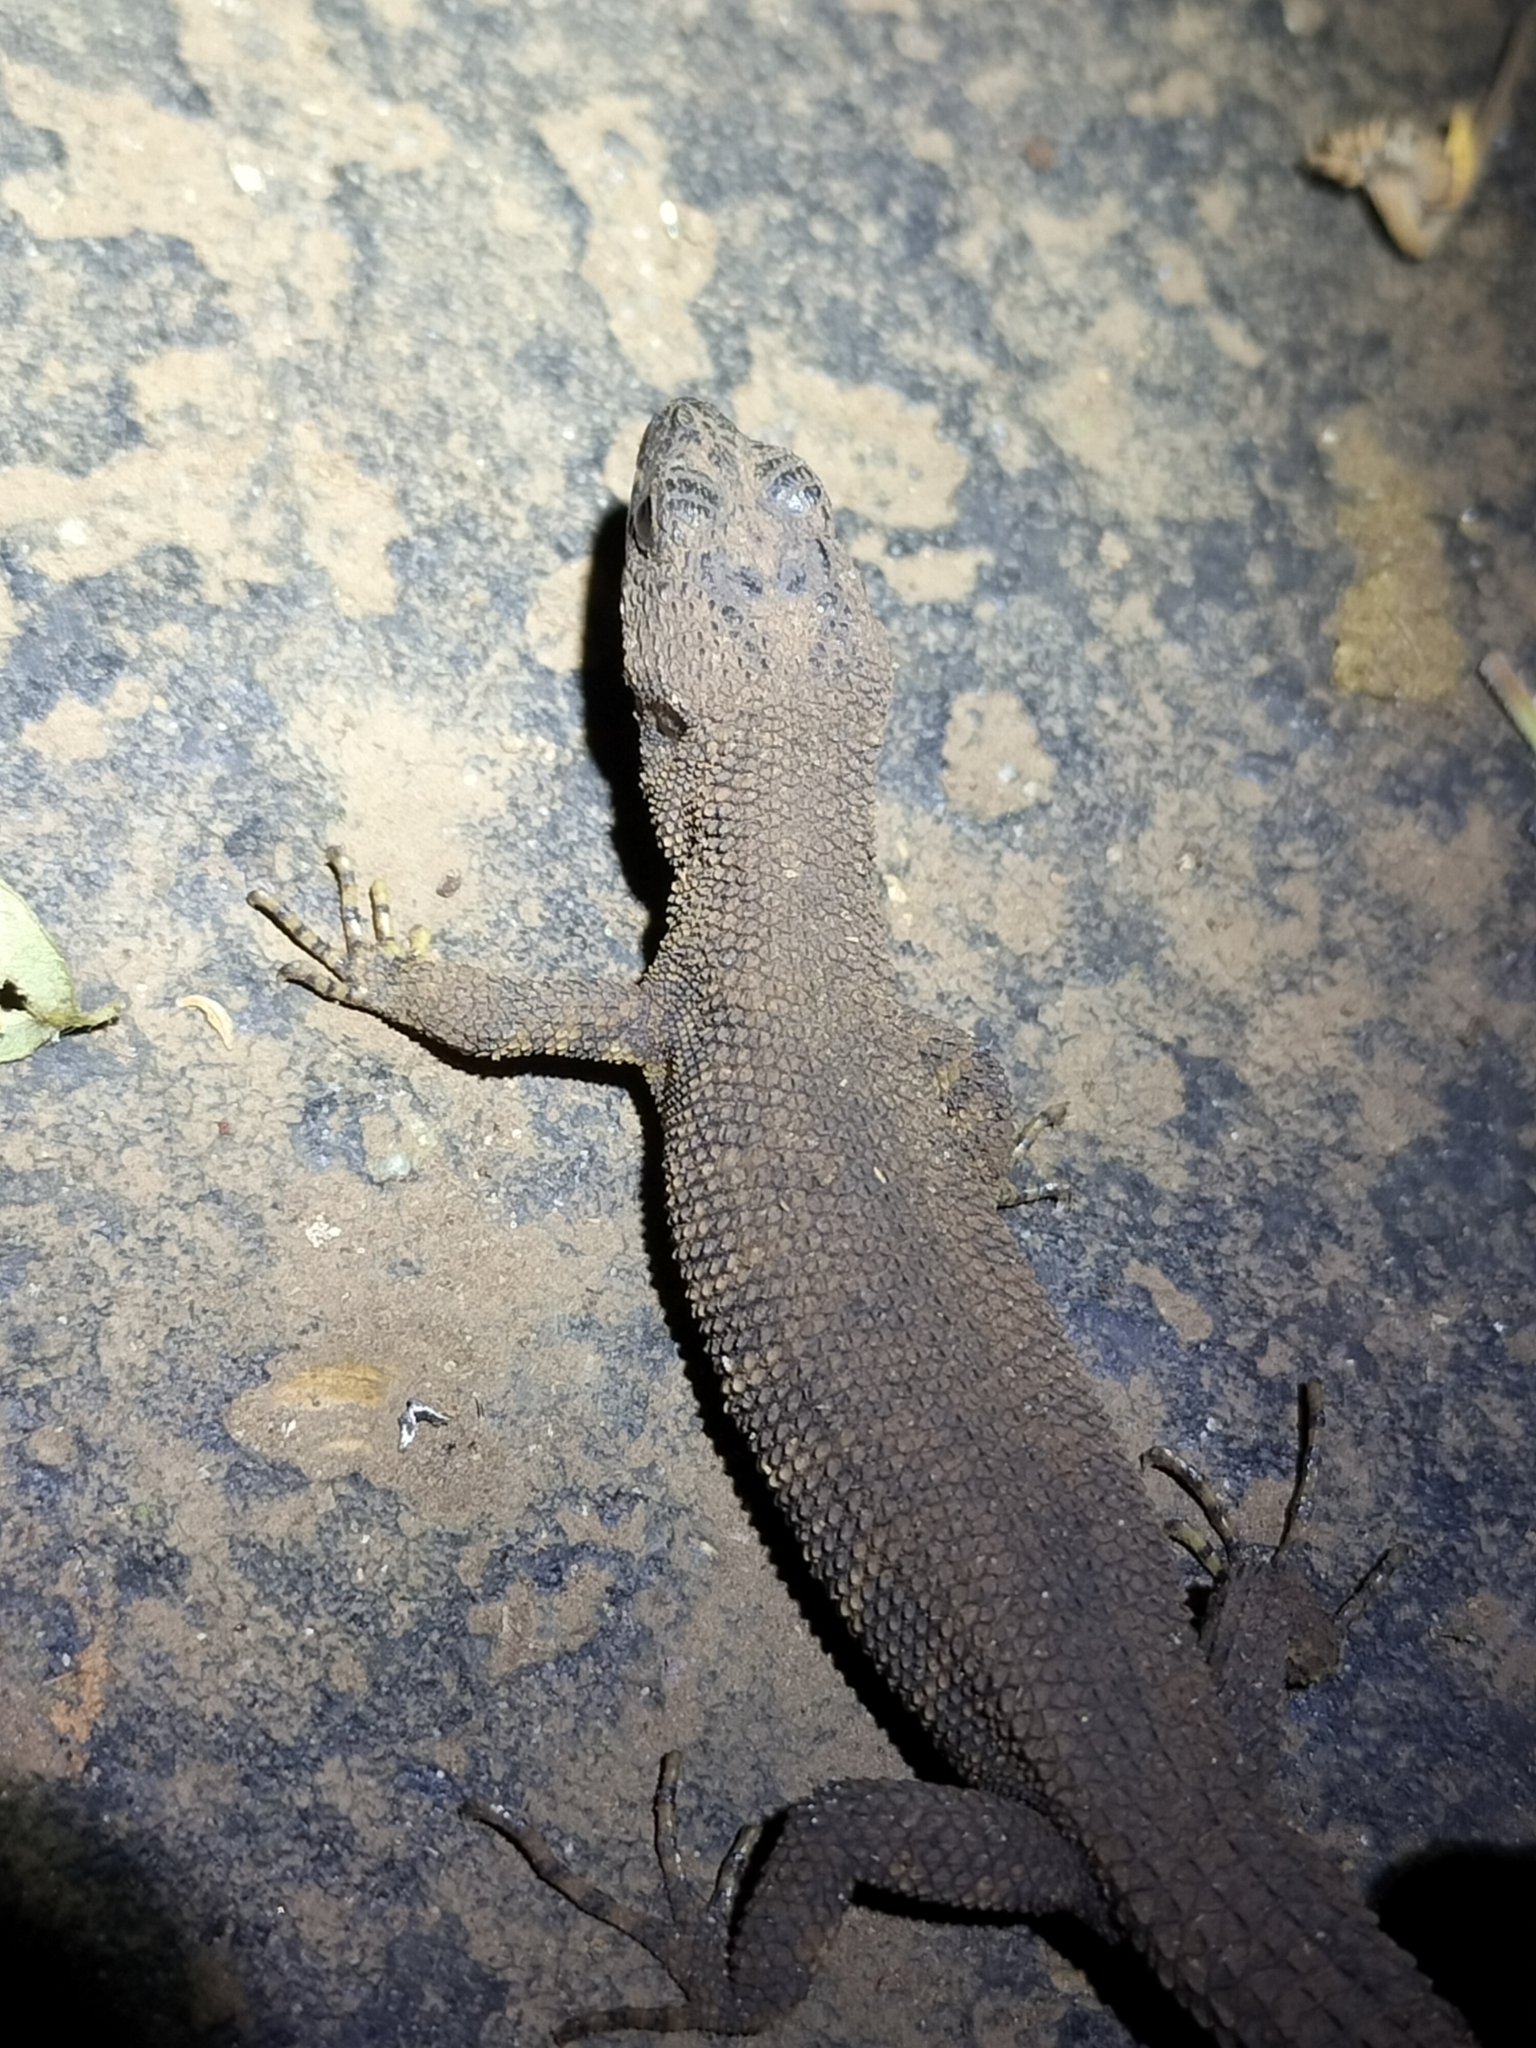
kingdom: Animalia
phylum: Chordata
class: Squamata
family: Scincidae
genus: Gnypetoscincus
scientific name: Gnypetoscincus queenslandiae
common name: Prickly forest skink
